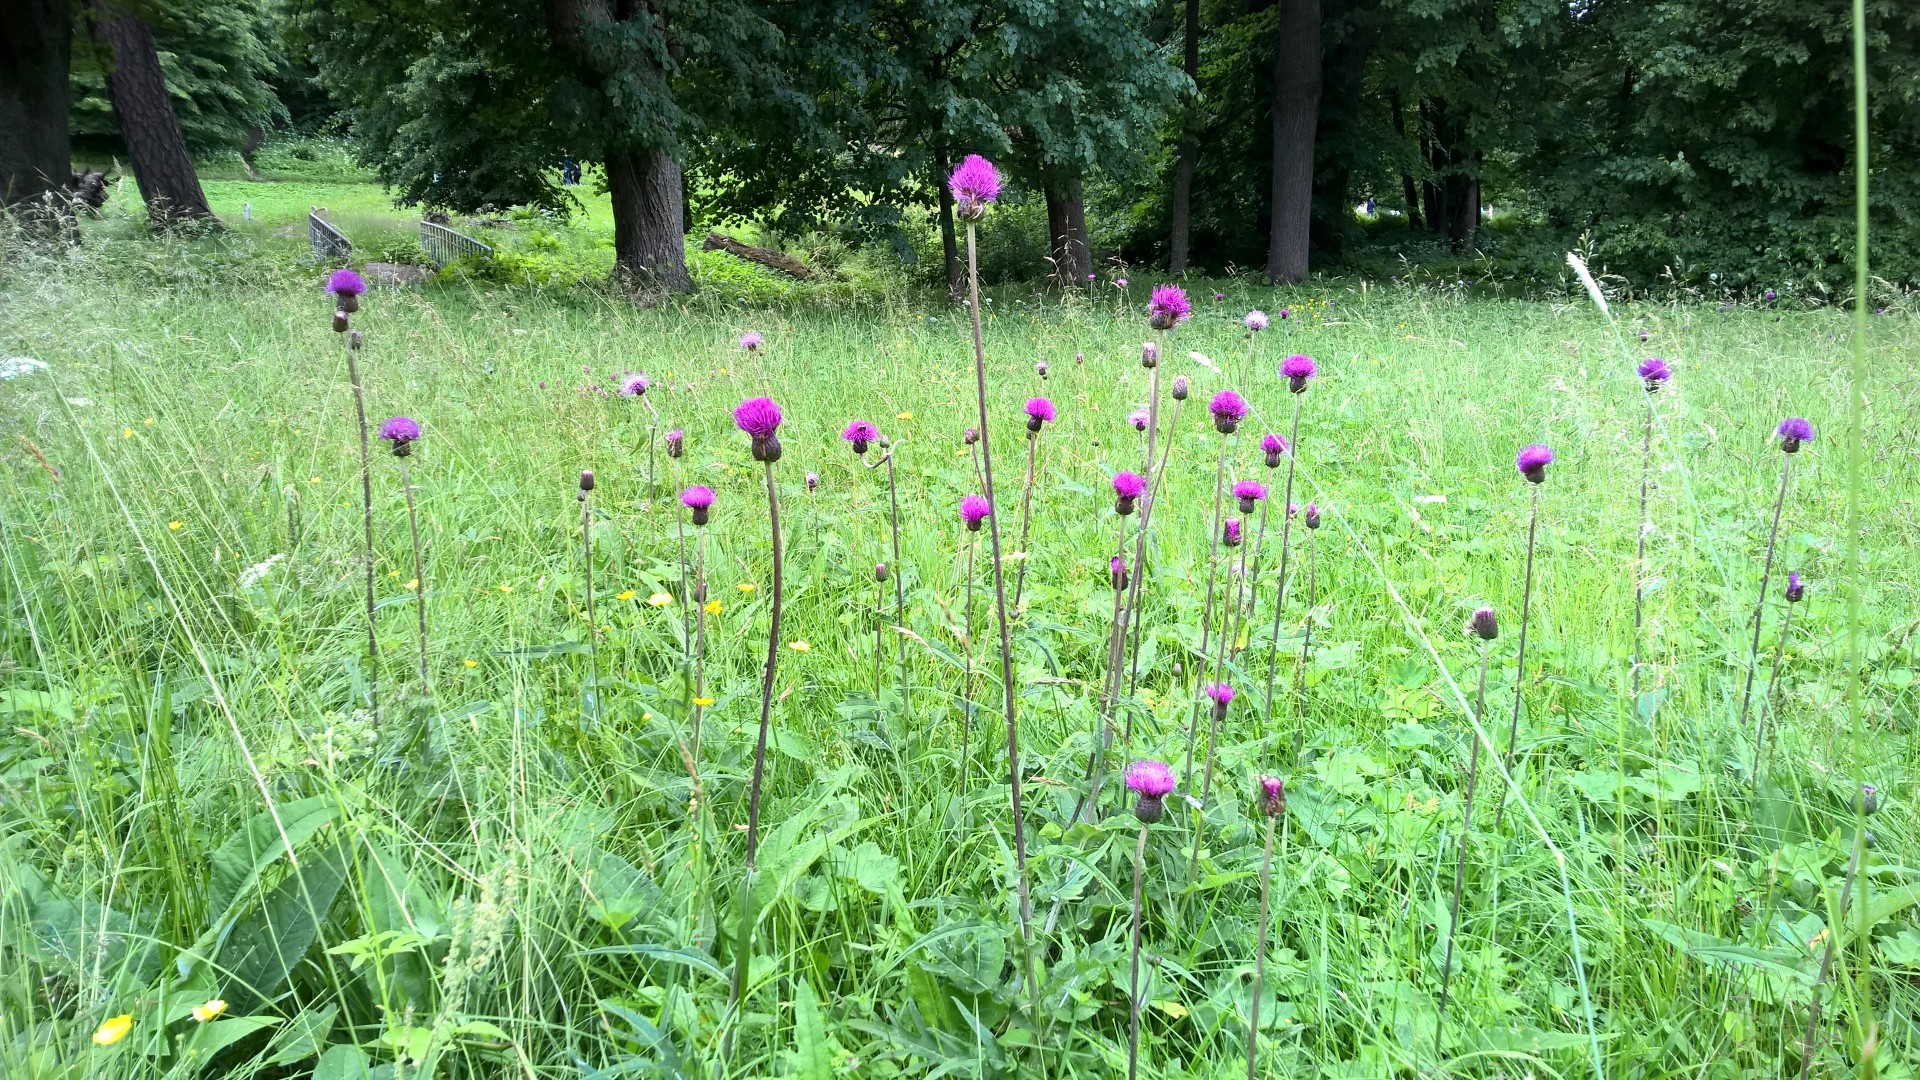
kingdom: Plantae
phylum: Tracheophyta
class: Magnoliopsida
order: Asterales
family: Asteraceae
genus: Cirsium
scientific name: Cirsium heterophyllum
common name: Melancholy thistle
